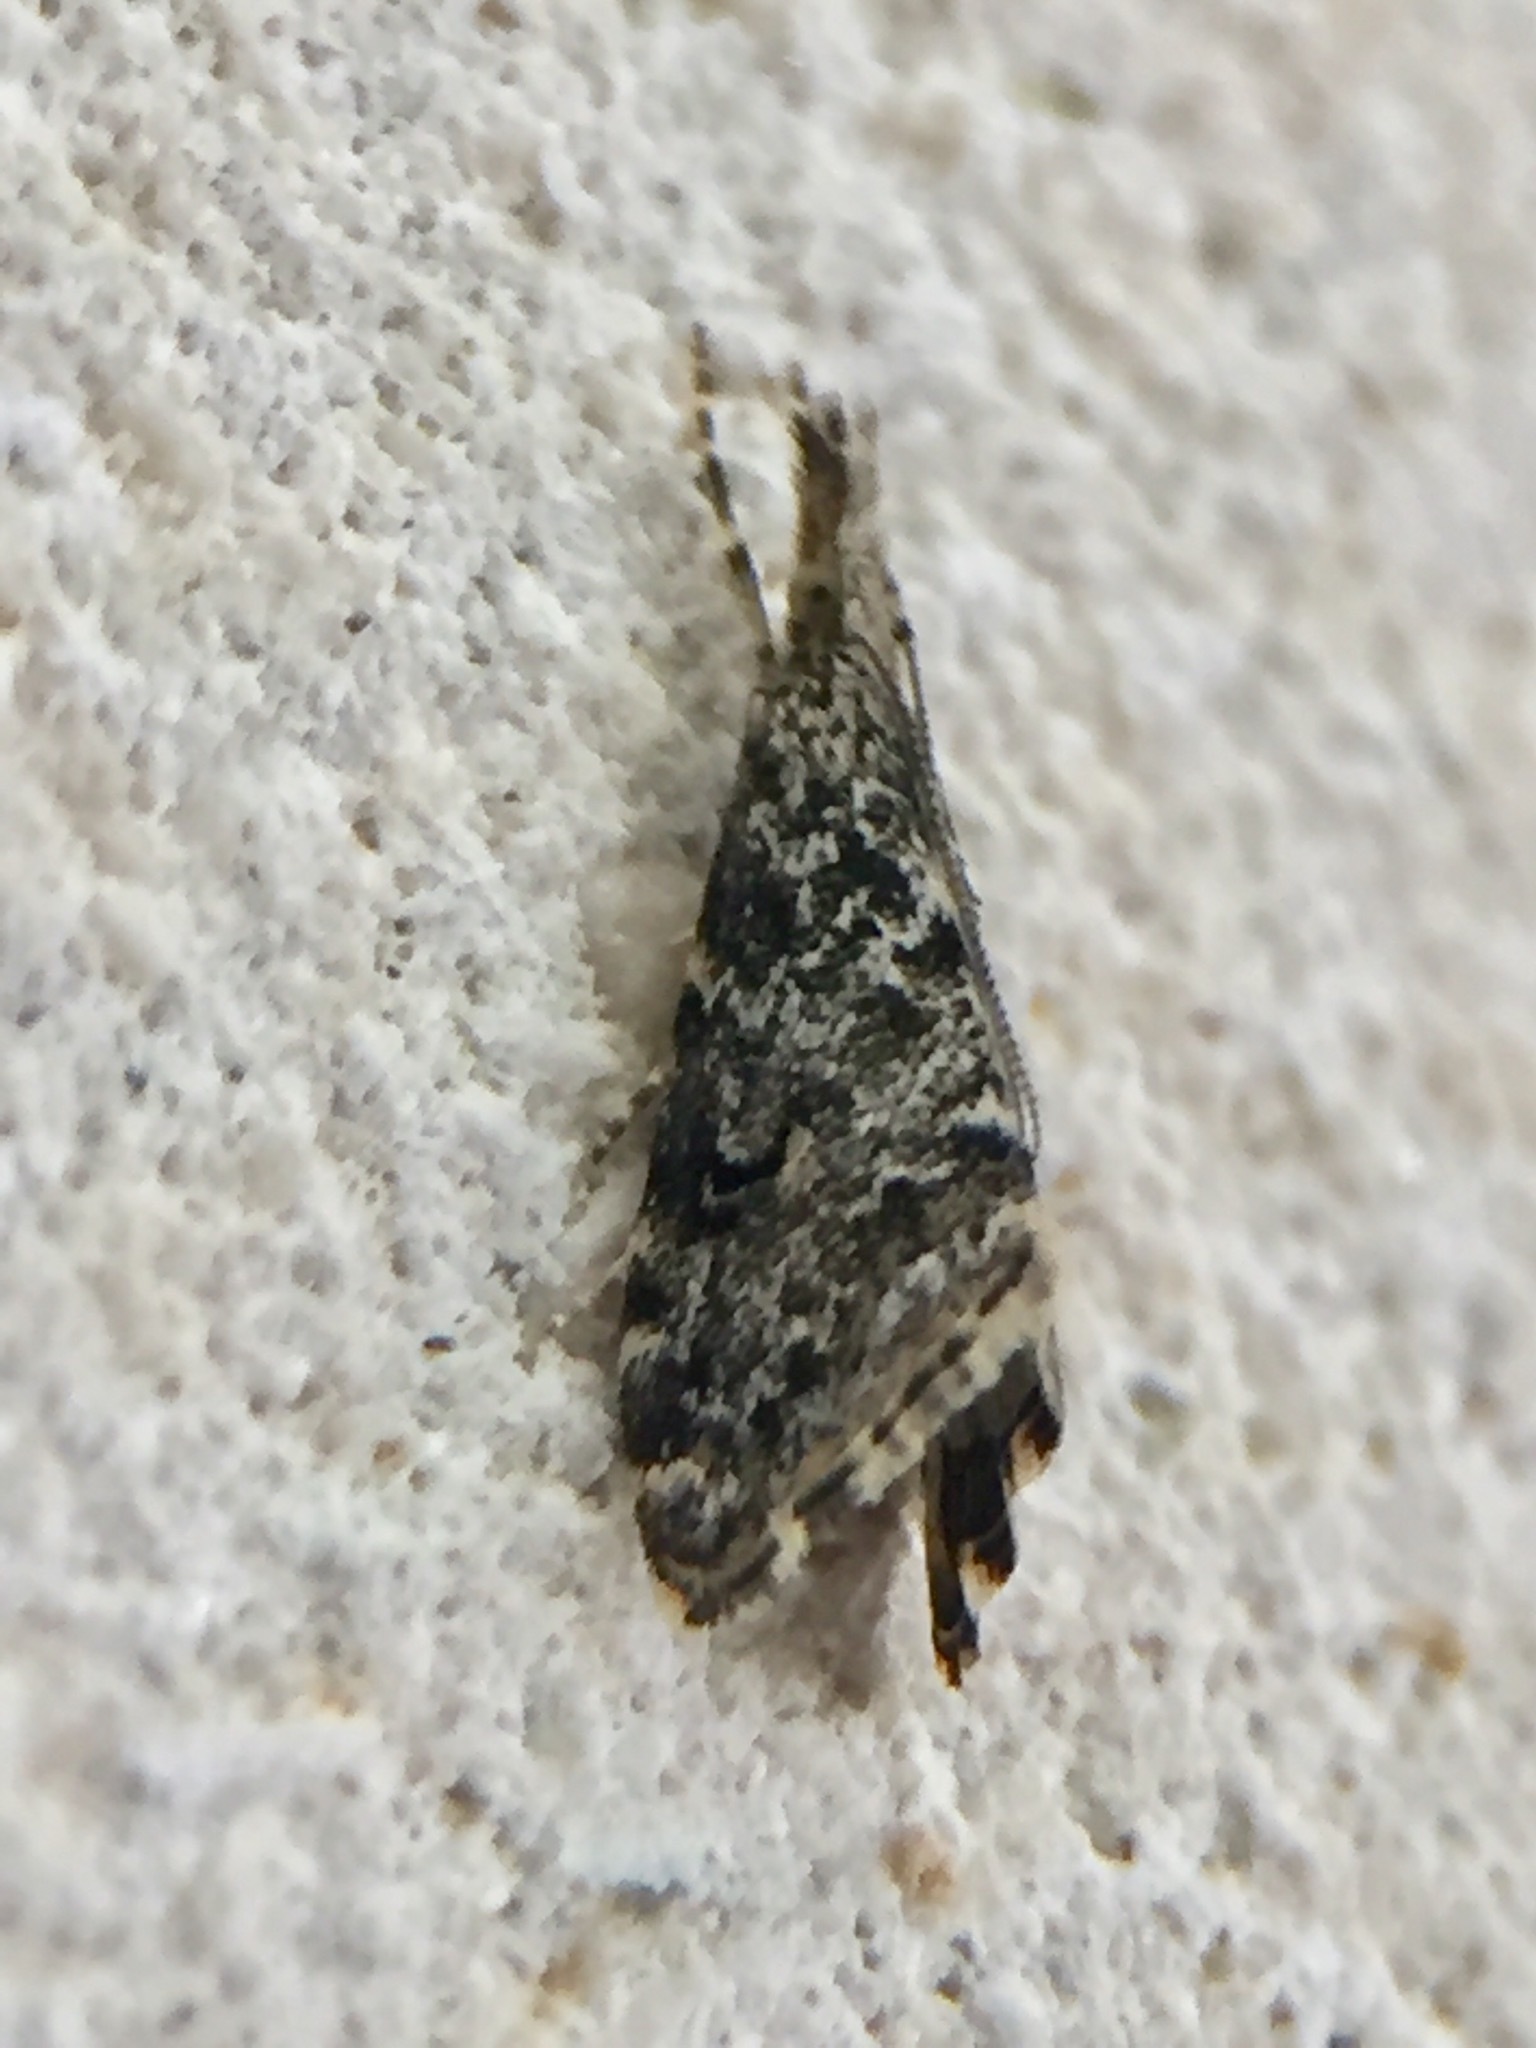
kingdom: Animalia
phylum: Arthropoda
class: Insecta
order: Lepidoptera
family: Crambidae
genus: Glaucocharis
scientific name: Glaucocharis elaina
